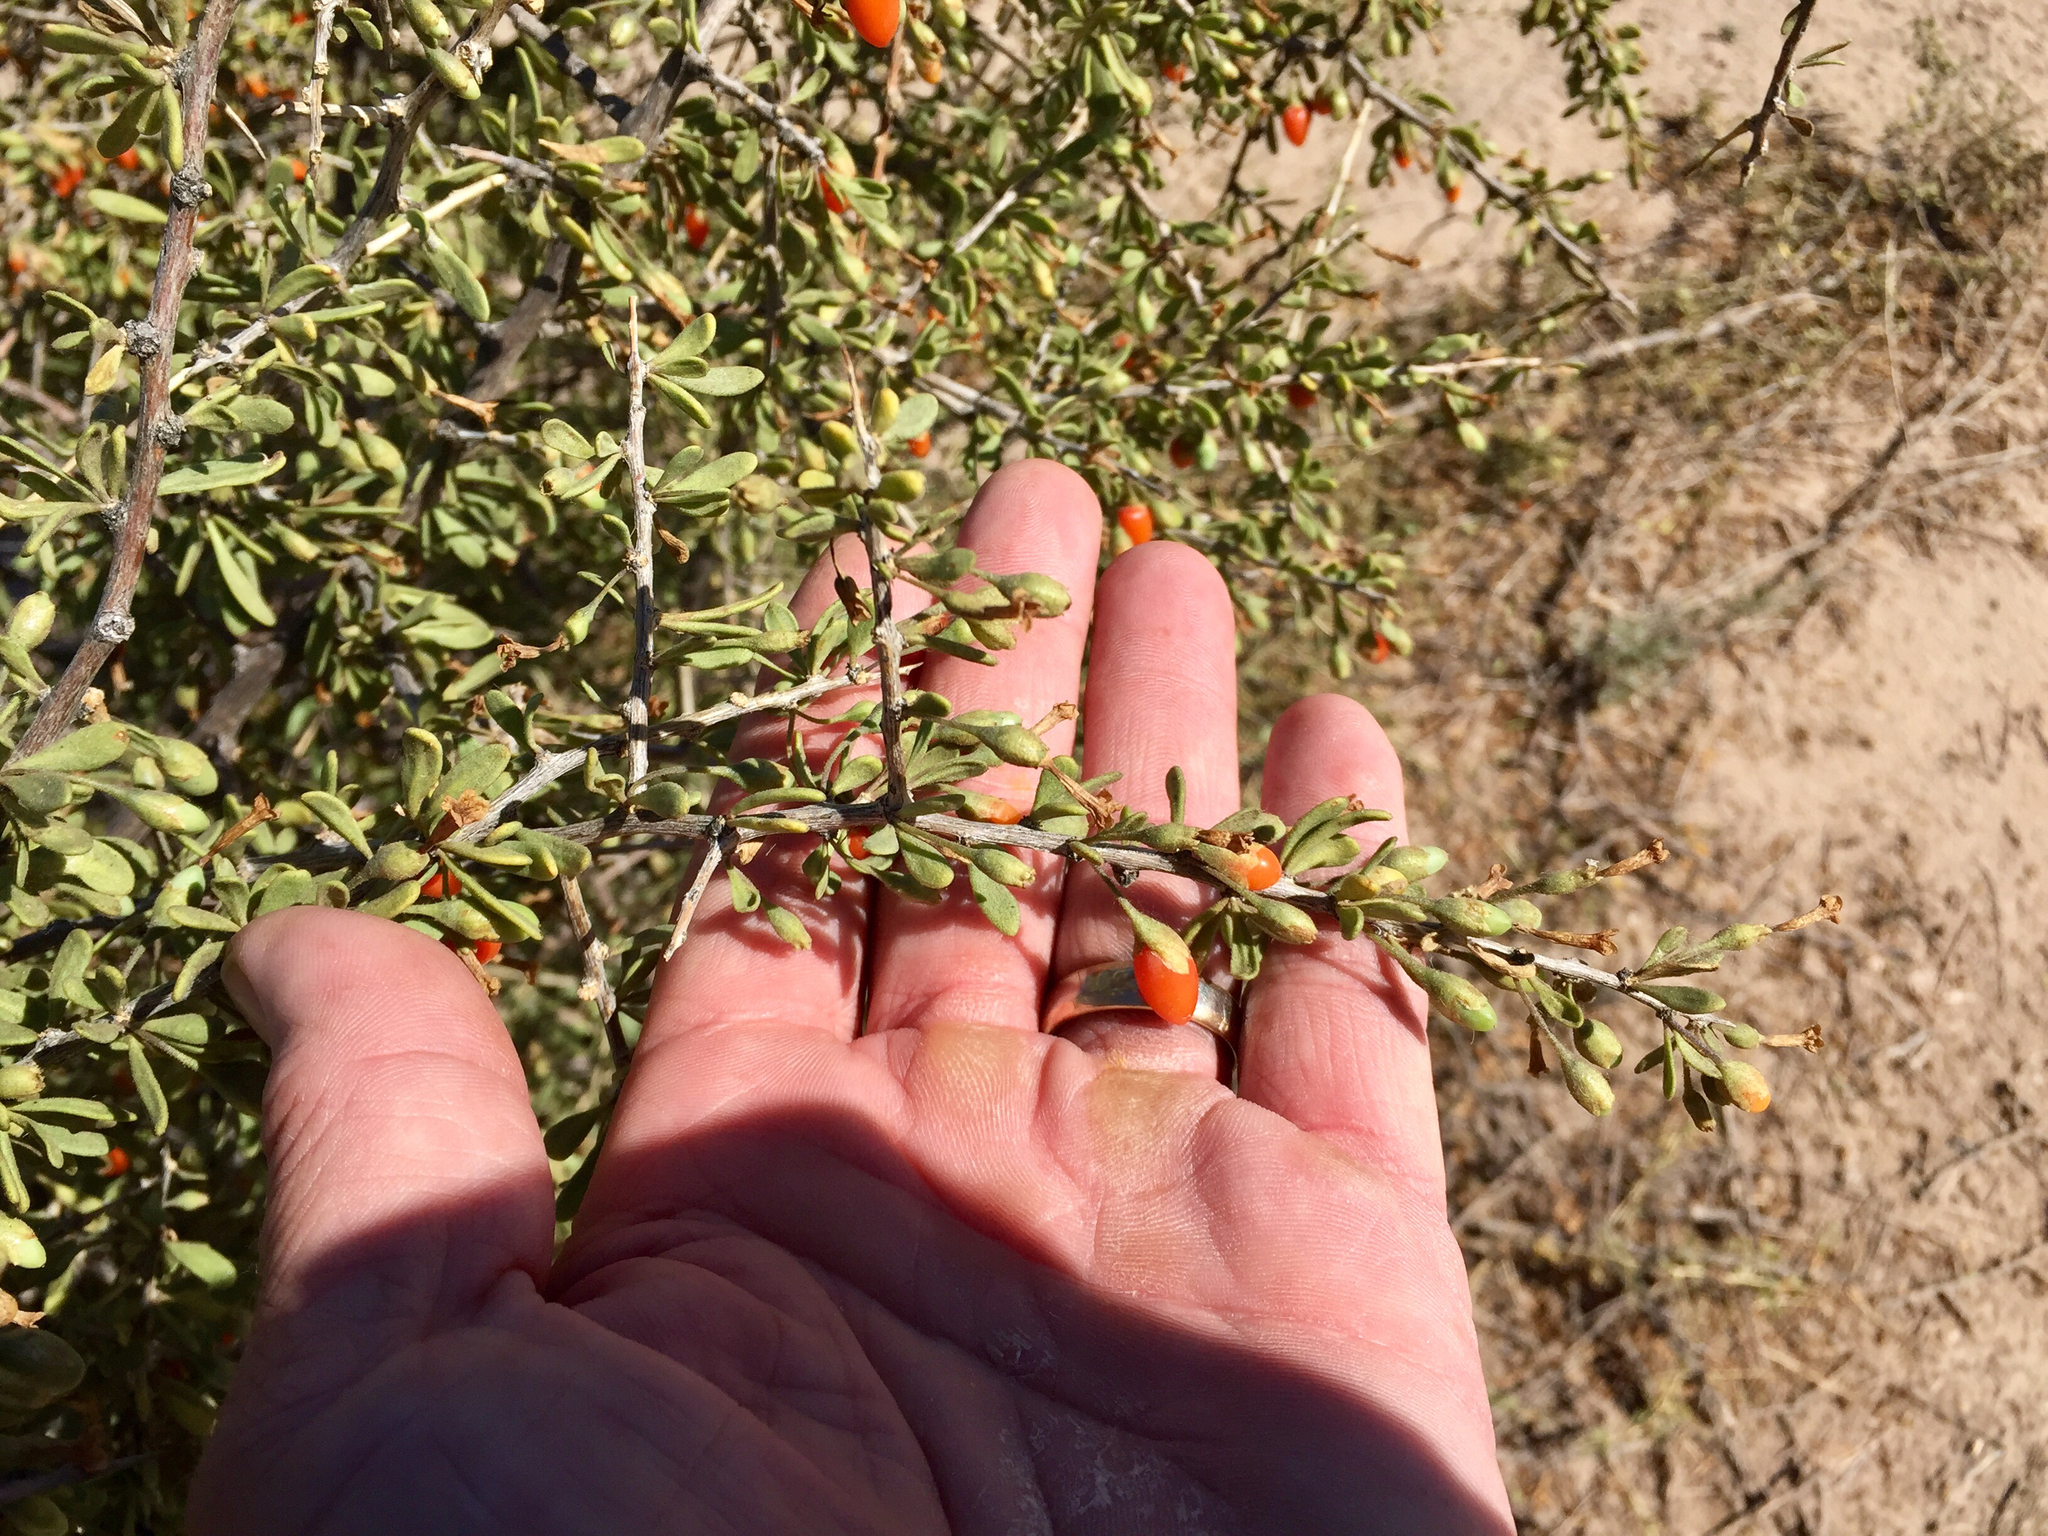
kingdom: Plantae
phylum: Tracheophyta
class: Magnoliopsida
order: Solanales
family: Solanaceae
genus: Lycium
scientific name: Lycium exsertum
